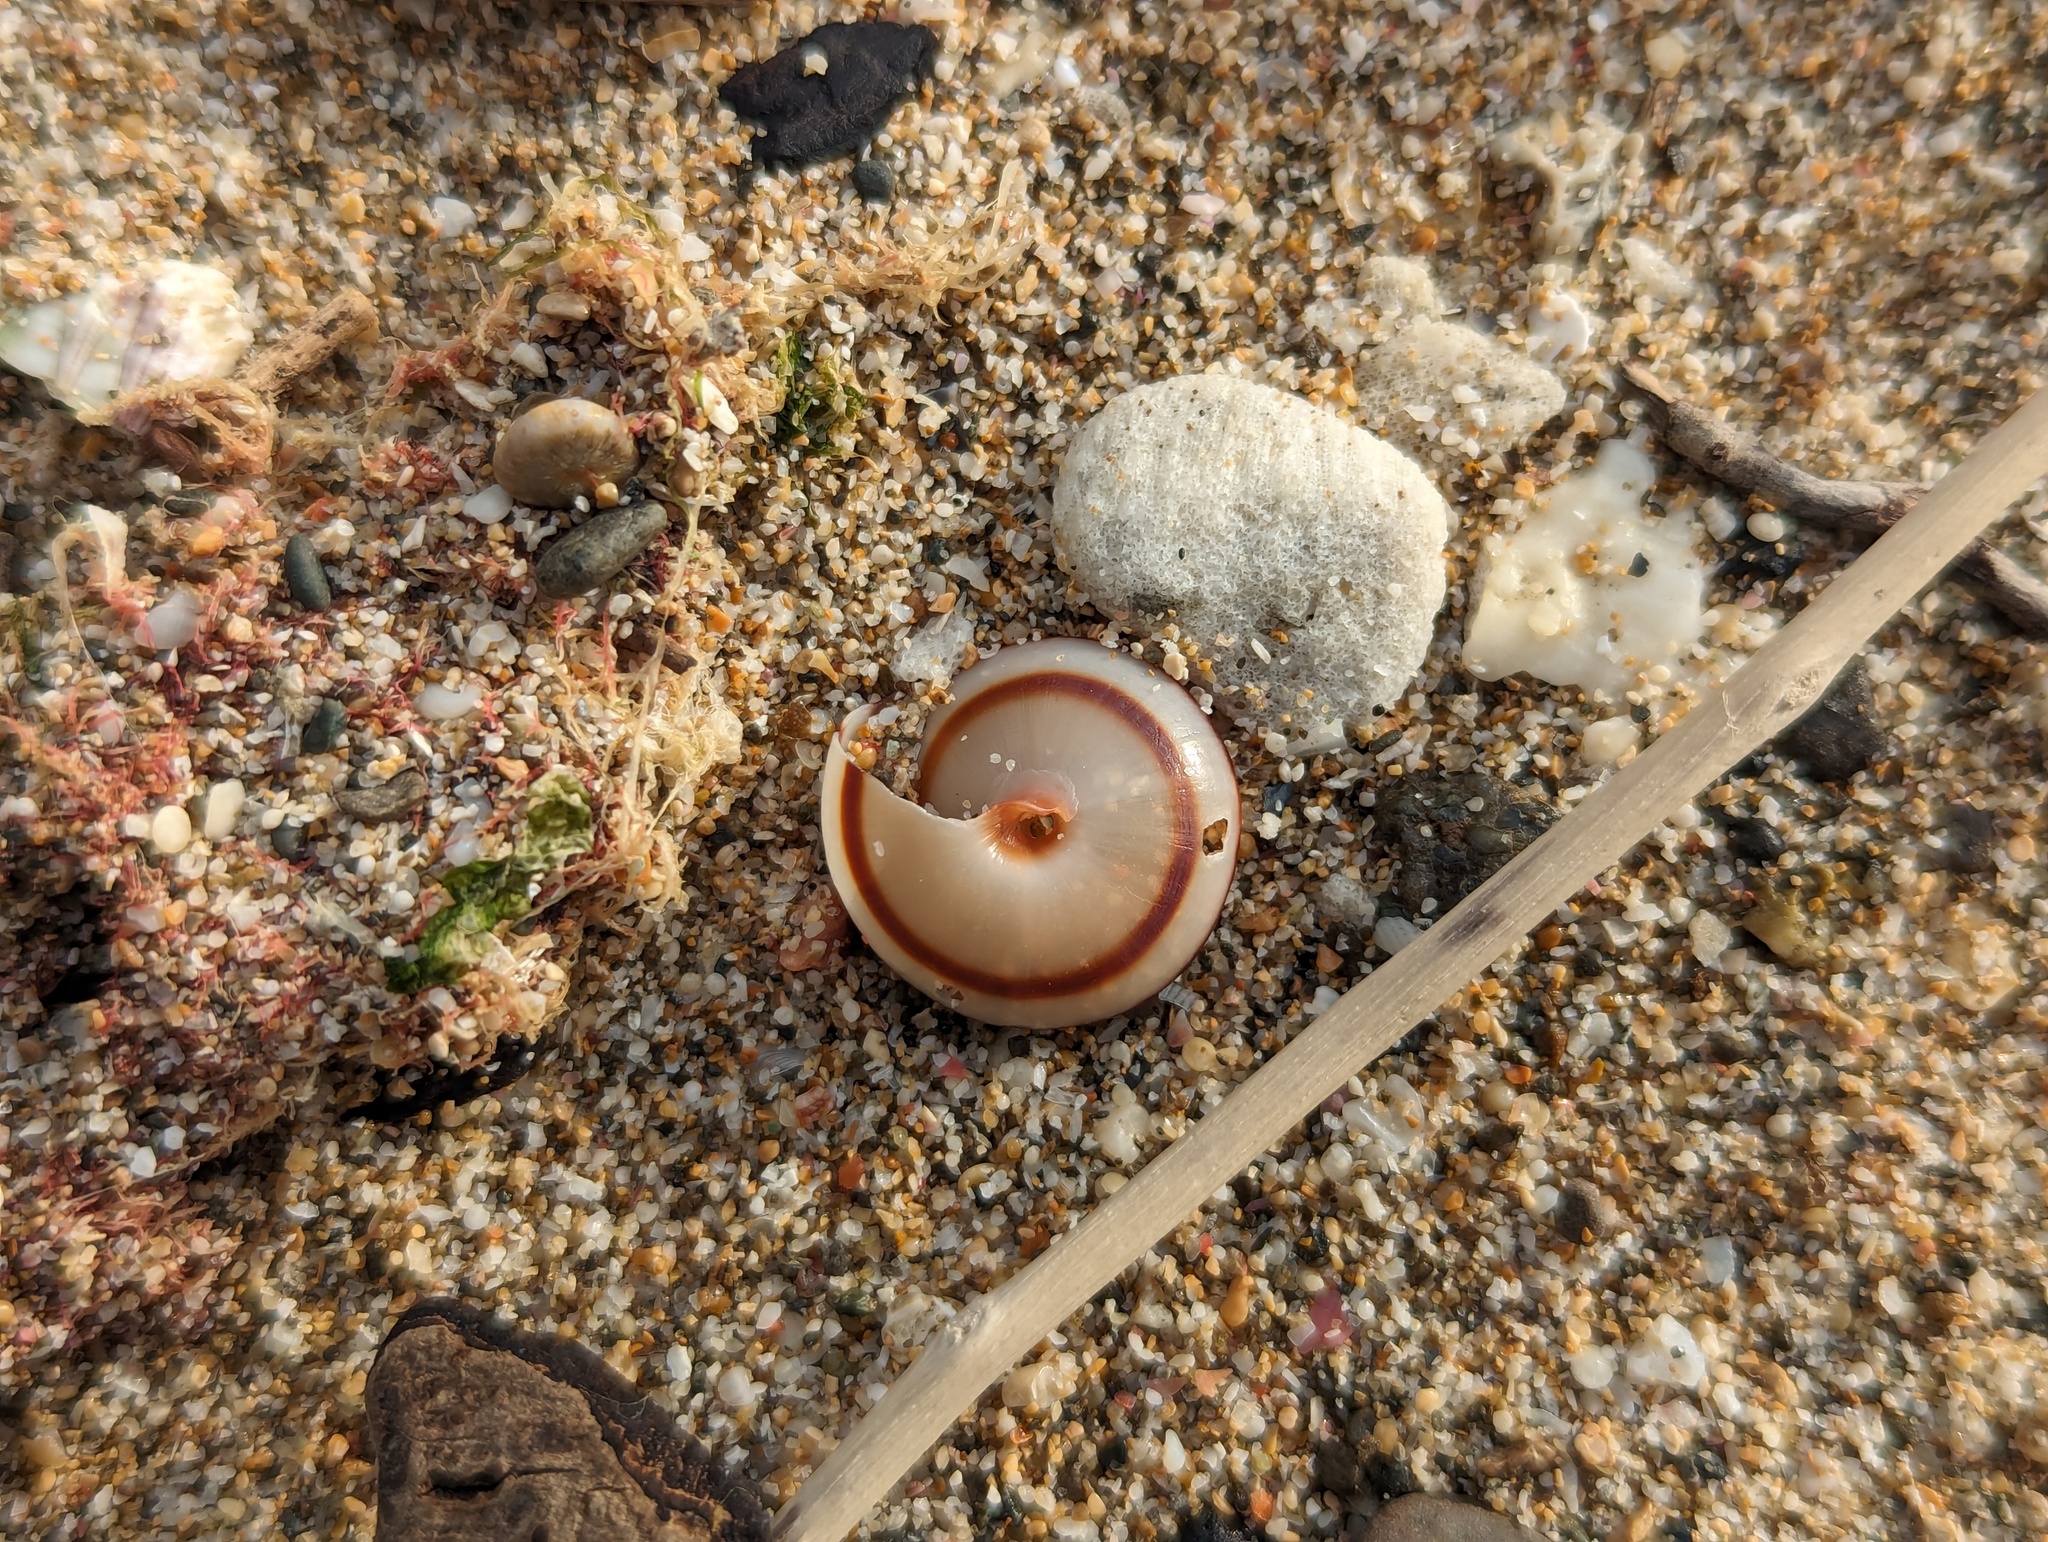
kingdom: Animalia
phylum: Mollusca
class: Gastropoda
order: Stylommatophora
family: Camaenidae
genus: Pancala
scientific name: Pancala batanica
